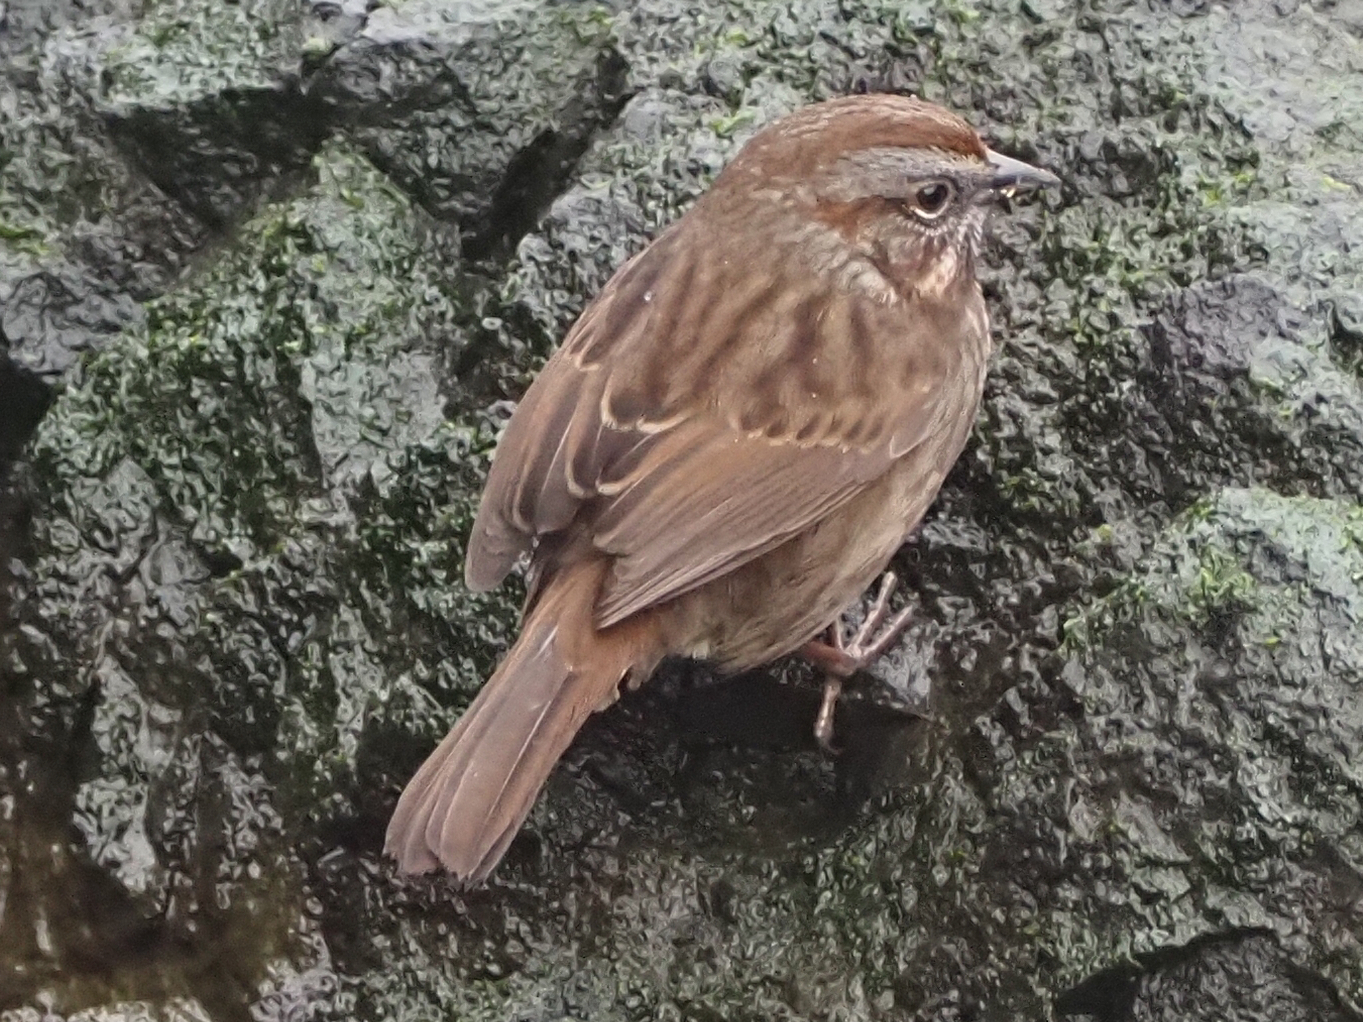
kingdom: Animalia
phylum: Chordata
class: Aves
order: Passeriformes
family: Passerellidae
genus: Melospiza
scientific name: Melospiza melodia
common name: Song sparrow
